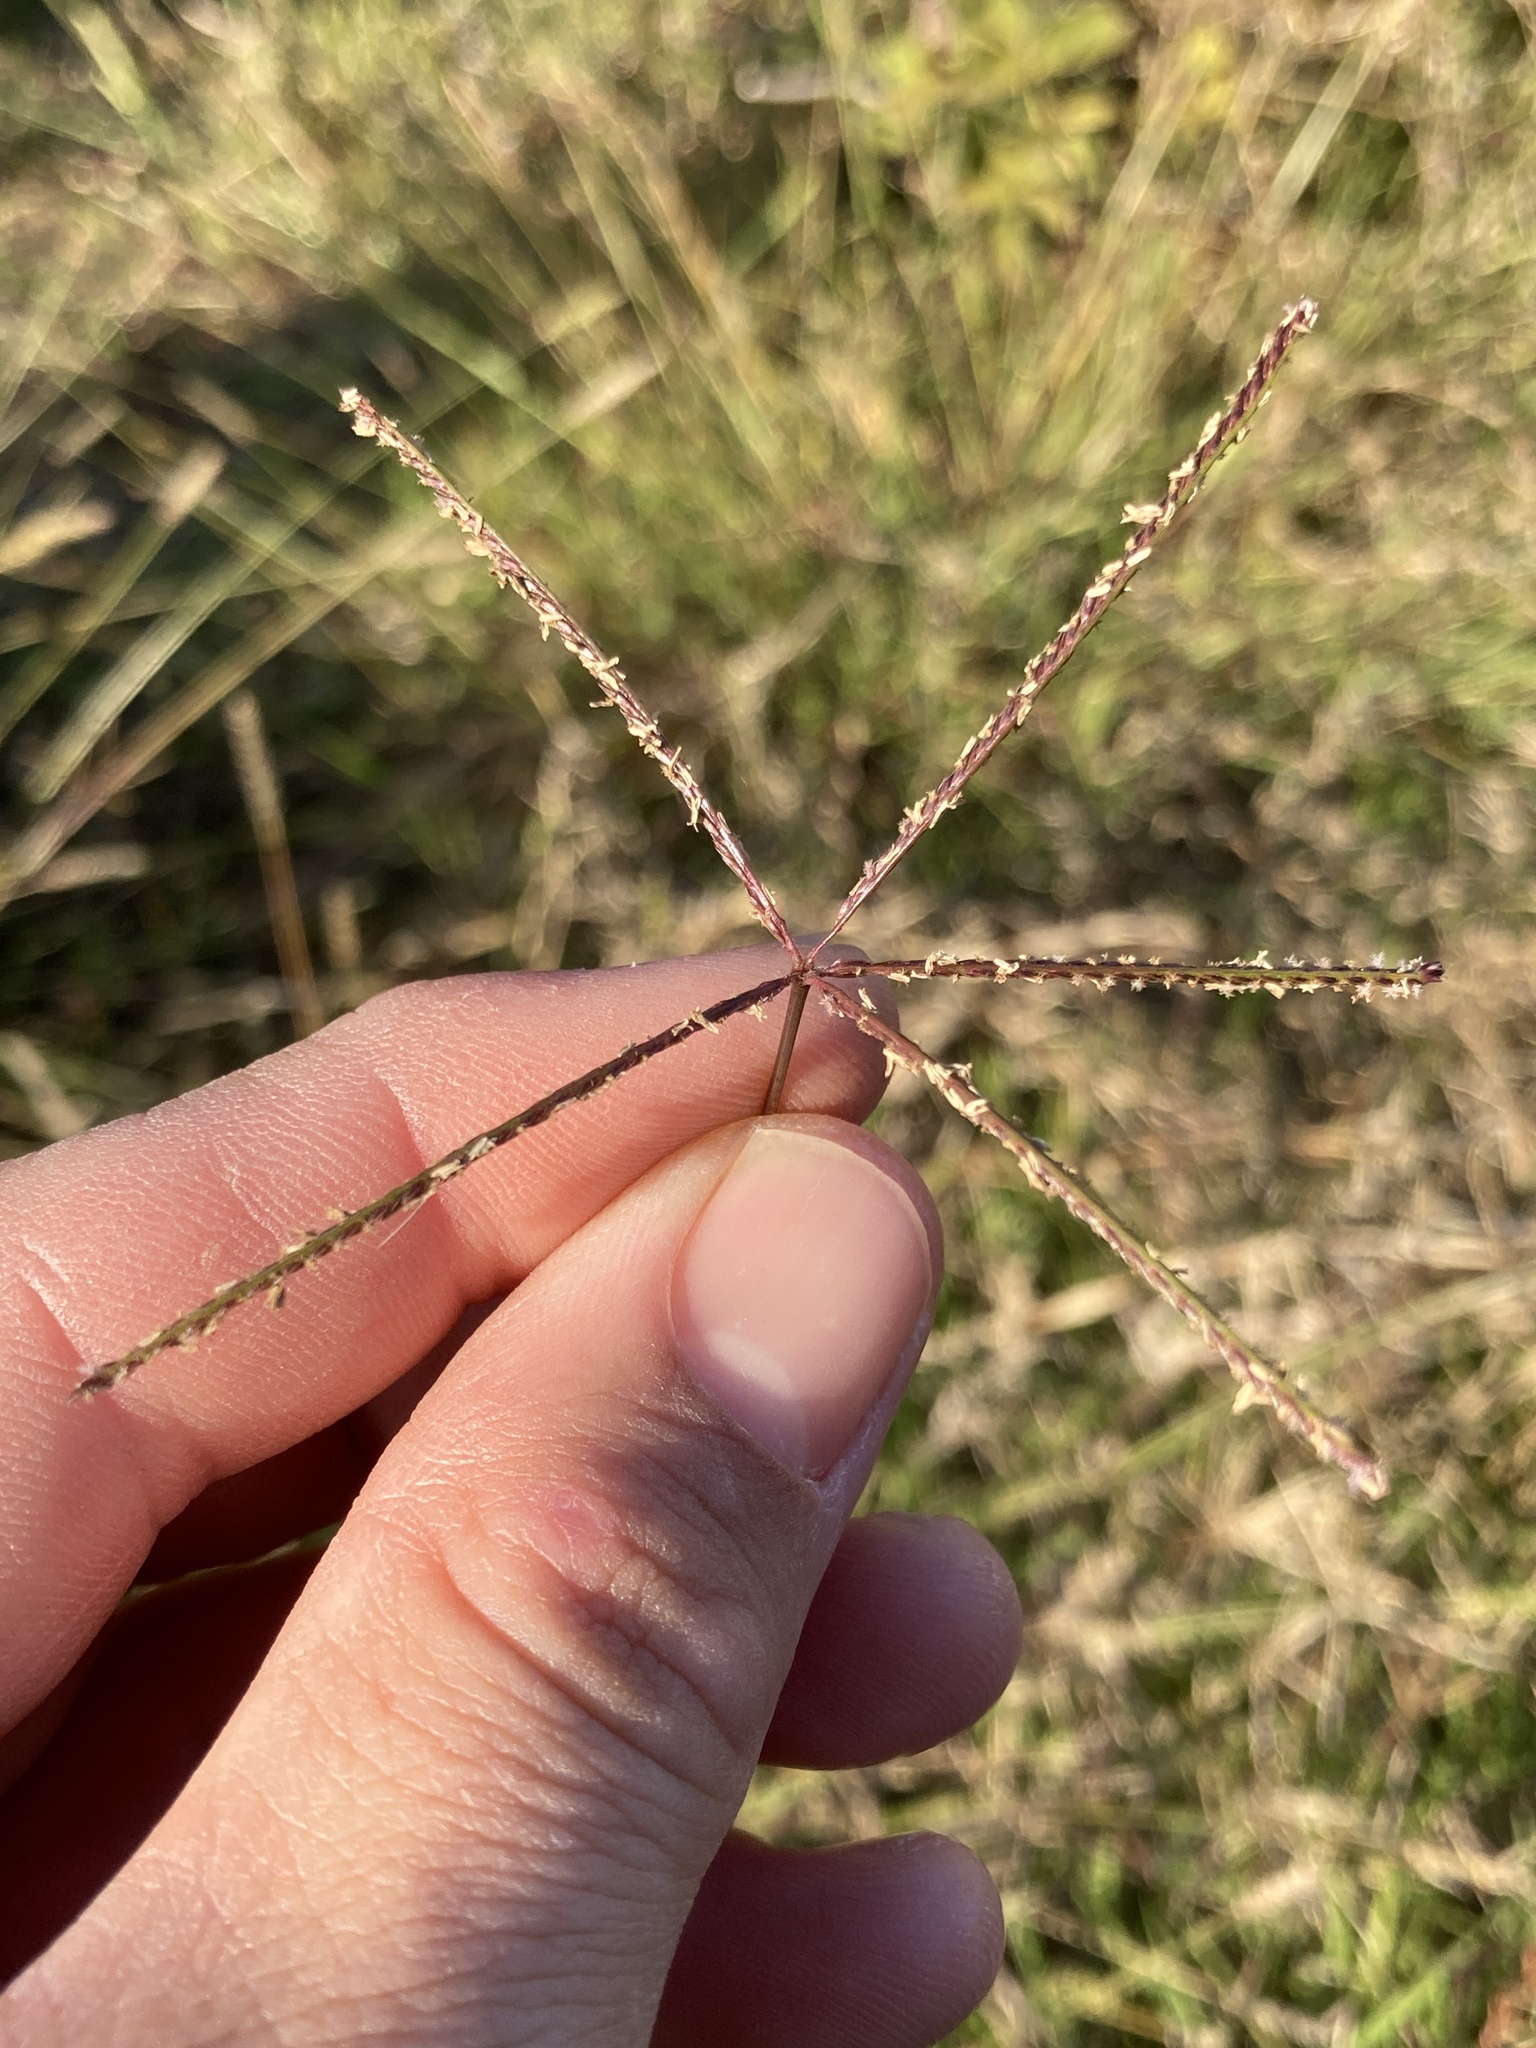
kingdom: Plantae
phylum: Tracheophyta
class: Liliopsida
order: Poales
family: Poaceae
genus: Cynodon
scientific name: Cynodon dactylon
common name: Bermuda grass
